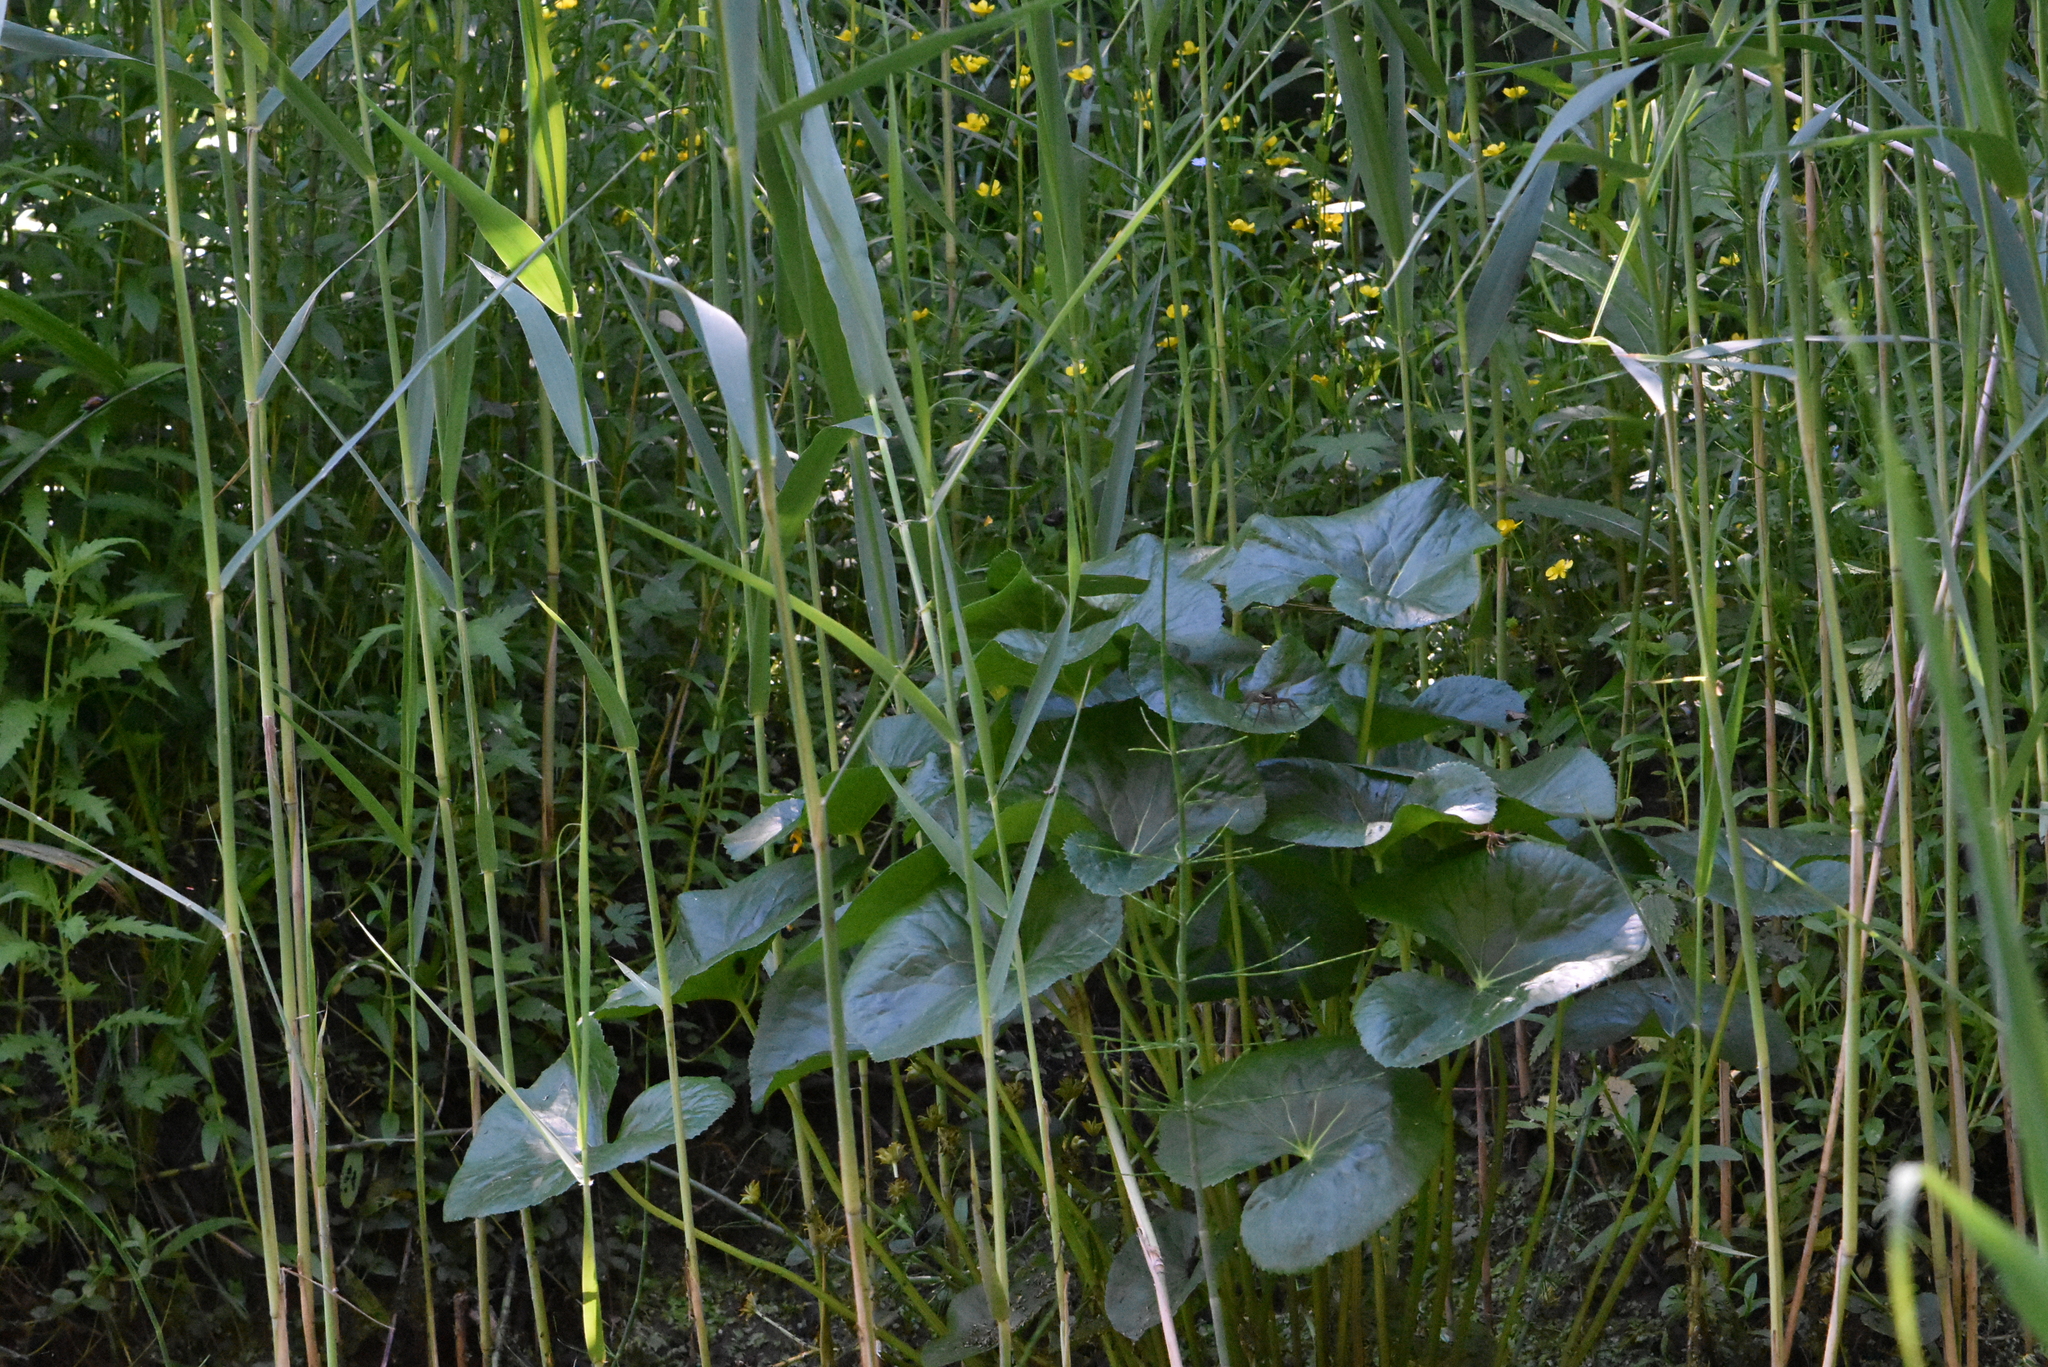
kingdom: Plantae
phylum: Tracheophyta
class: Magnoliopsida
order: Ranunculales
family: Ranunculaceae
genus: Caltha
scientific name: Caltha palustris
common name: Marsh marigold
